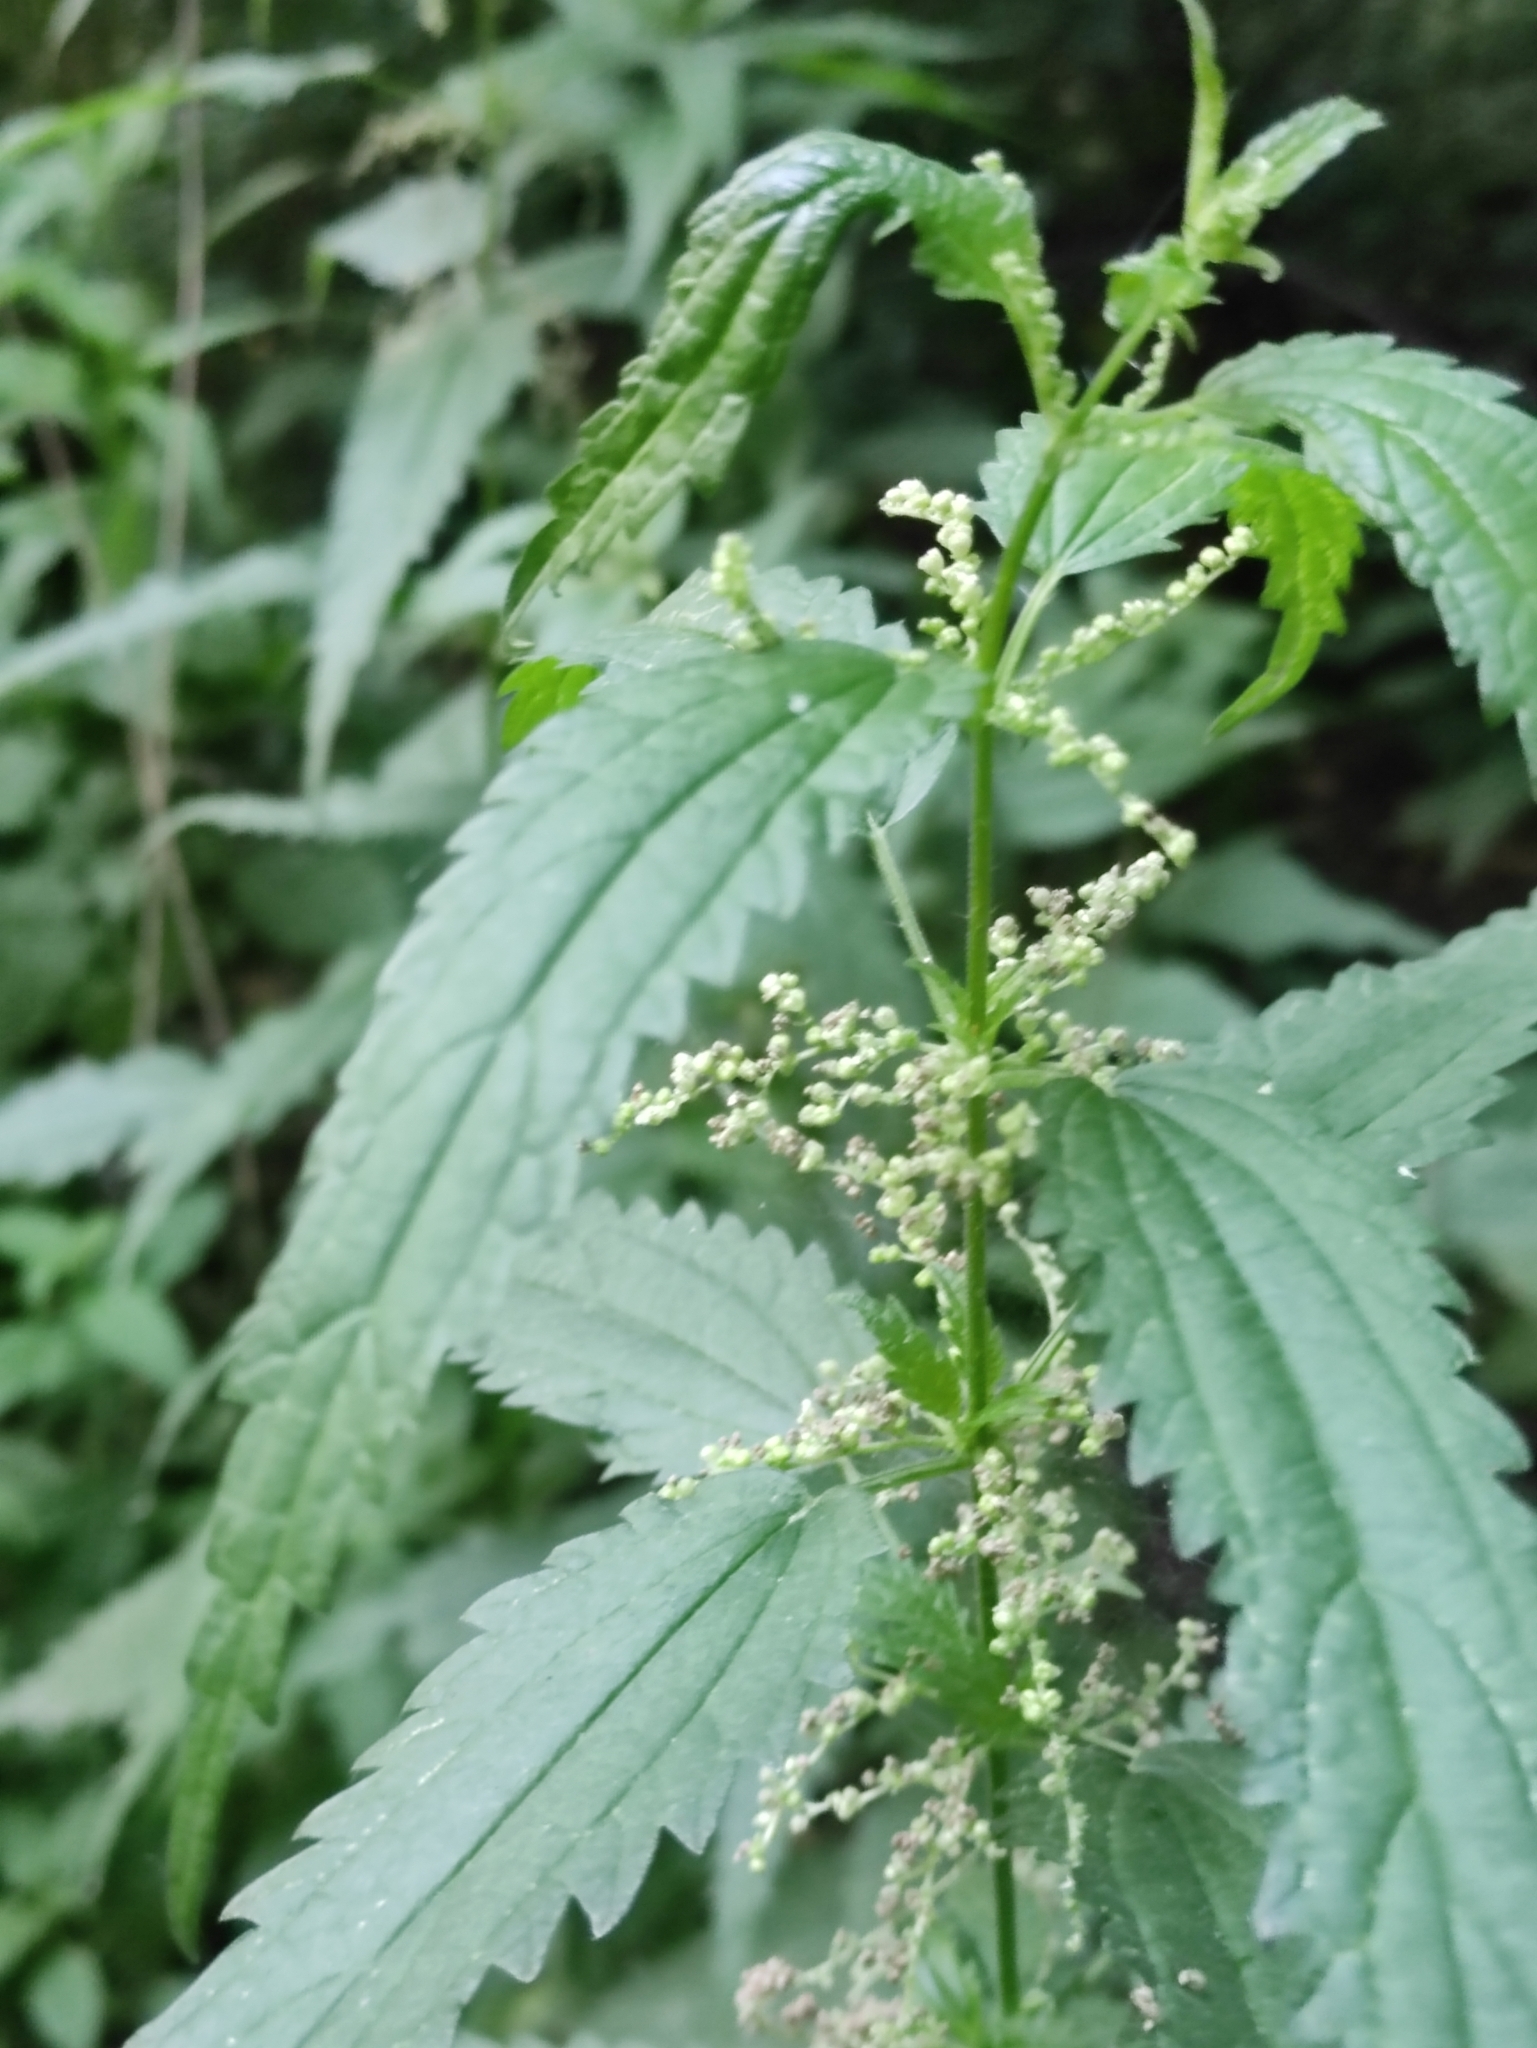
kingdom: Plantae
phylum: Tracheophyta
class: Magnoliopsida
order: Rosales
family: Urticaceae
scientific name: Urticaceae
